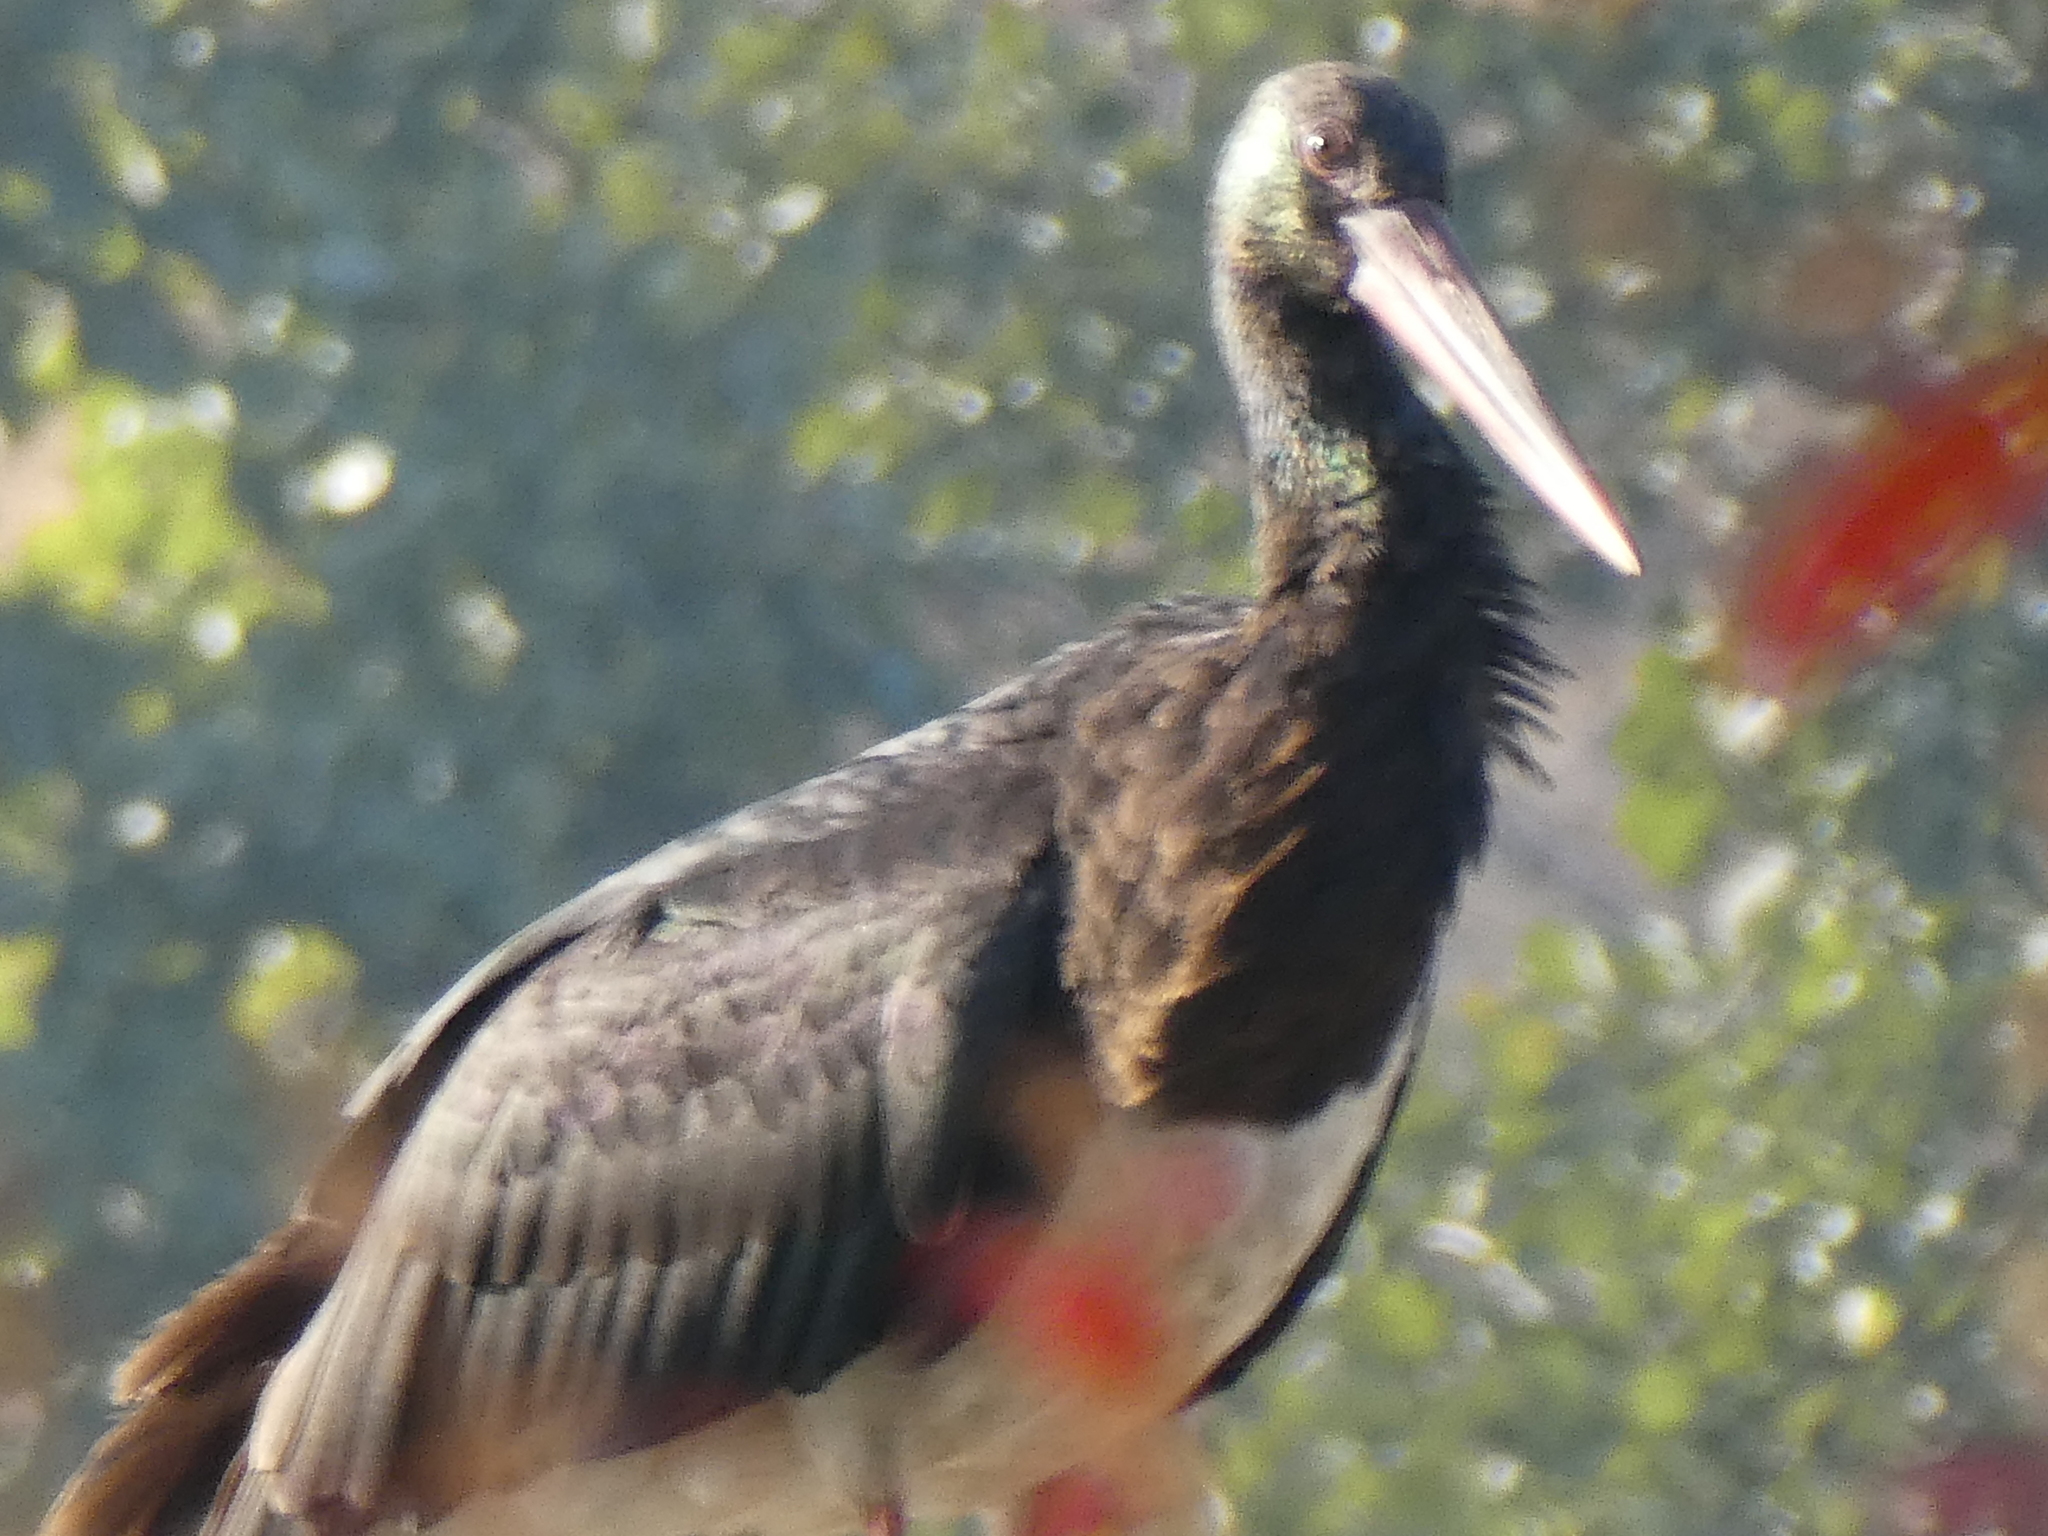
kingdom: Animalia
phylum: Chordata
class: Aves
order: Ciconiiformes
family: Ciconiidae
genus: Ciconia
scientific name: Ciconia nigra
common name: Black stork
